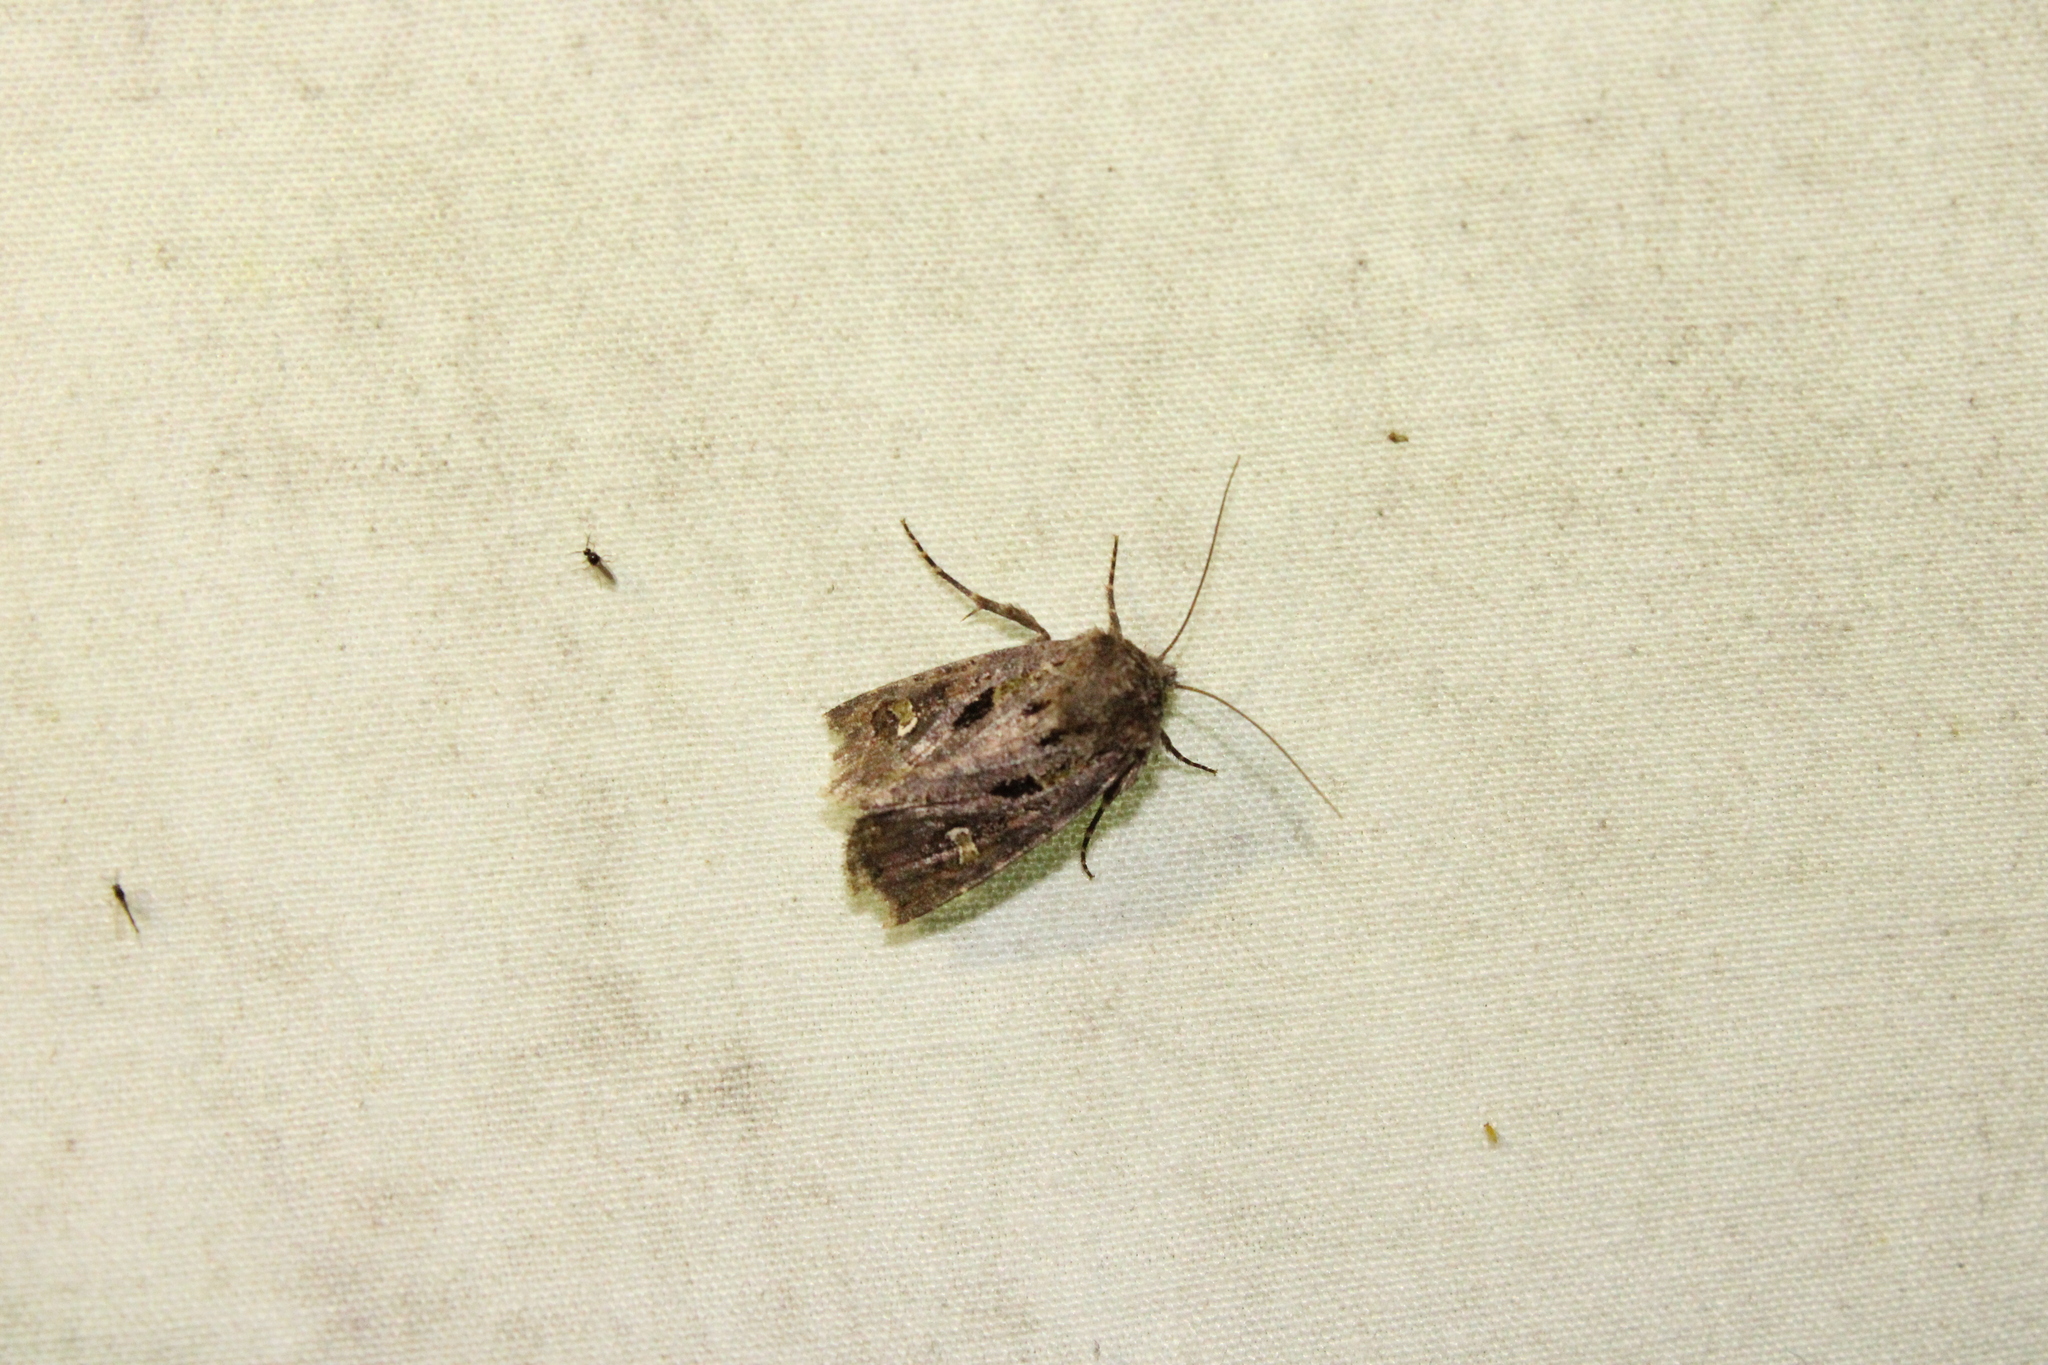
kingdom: Animalia
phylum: Arthropoda
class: Insecta
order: Lepidoptera
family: Noctuidae
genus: Lacinipolia
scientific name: Lacinipolia renigera
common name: Kidney-spotted minor
